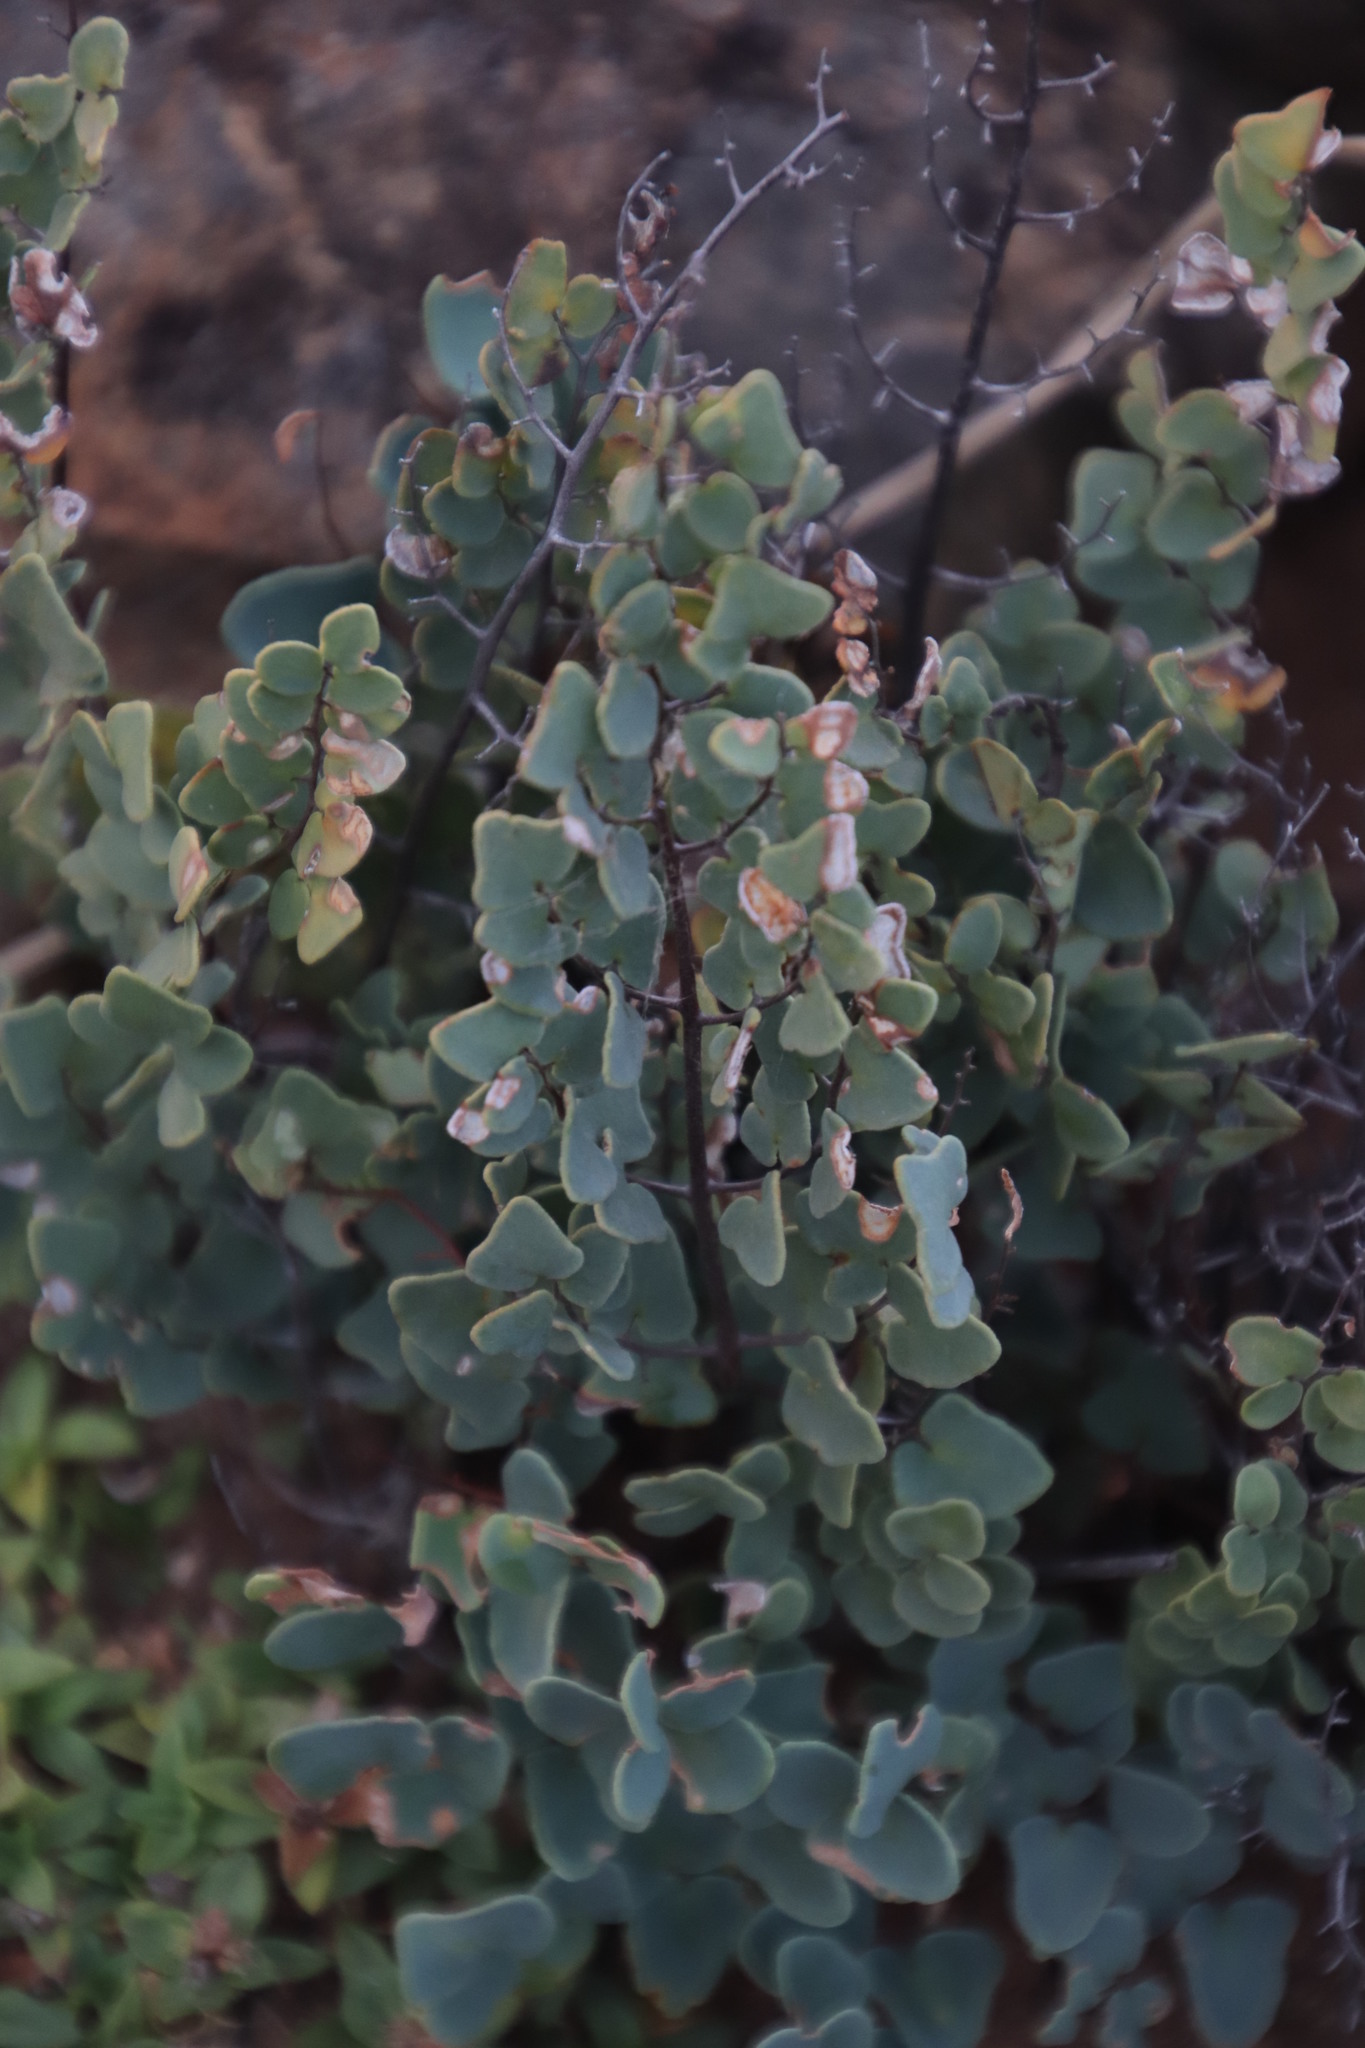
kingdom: Plantae
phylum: Tracheophyta
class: Polypodiopsida
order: Polypodiales
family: Pteridaceae
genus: Pellaea
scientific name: Pellaea calomelanos
